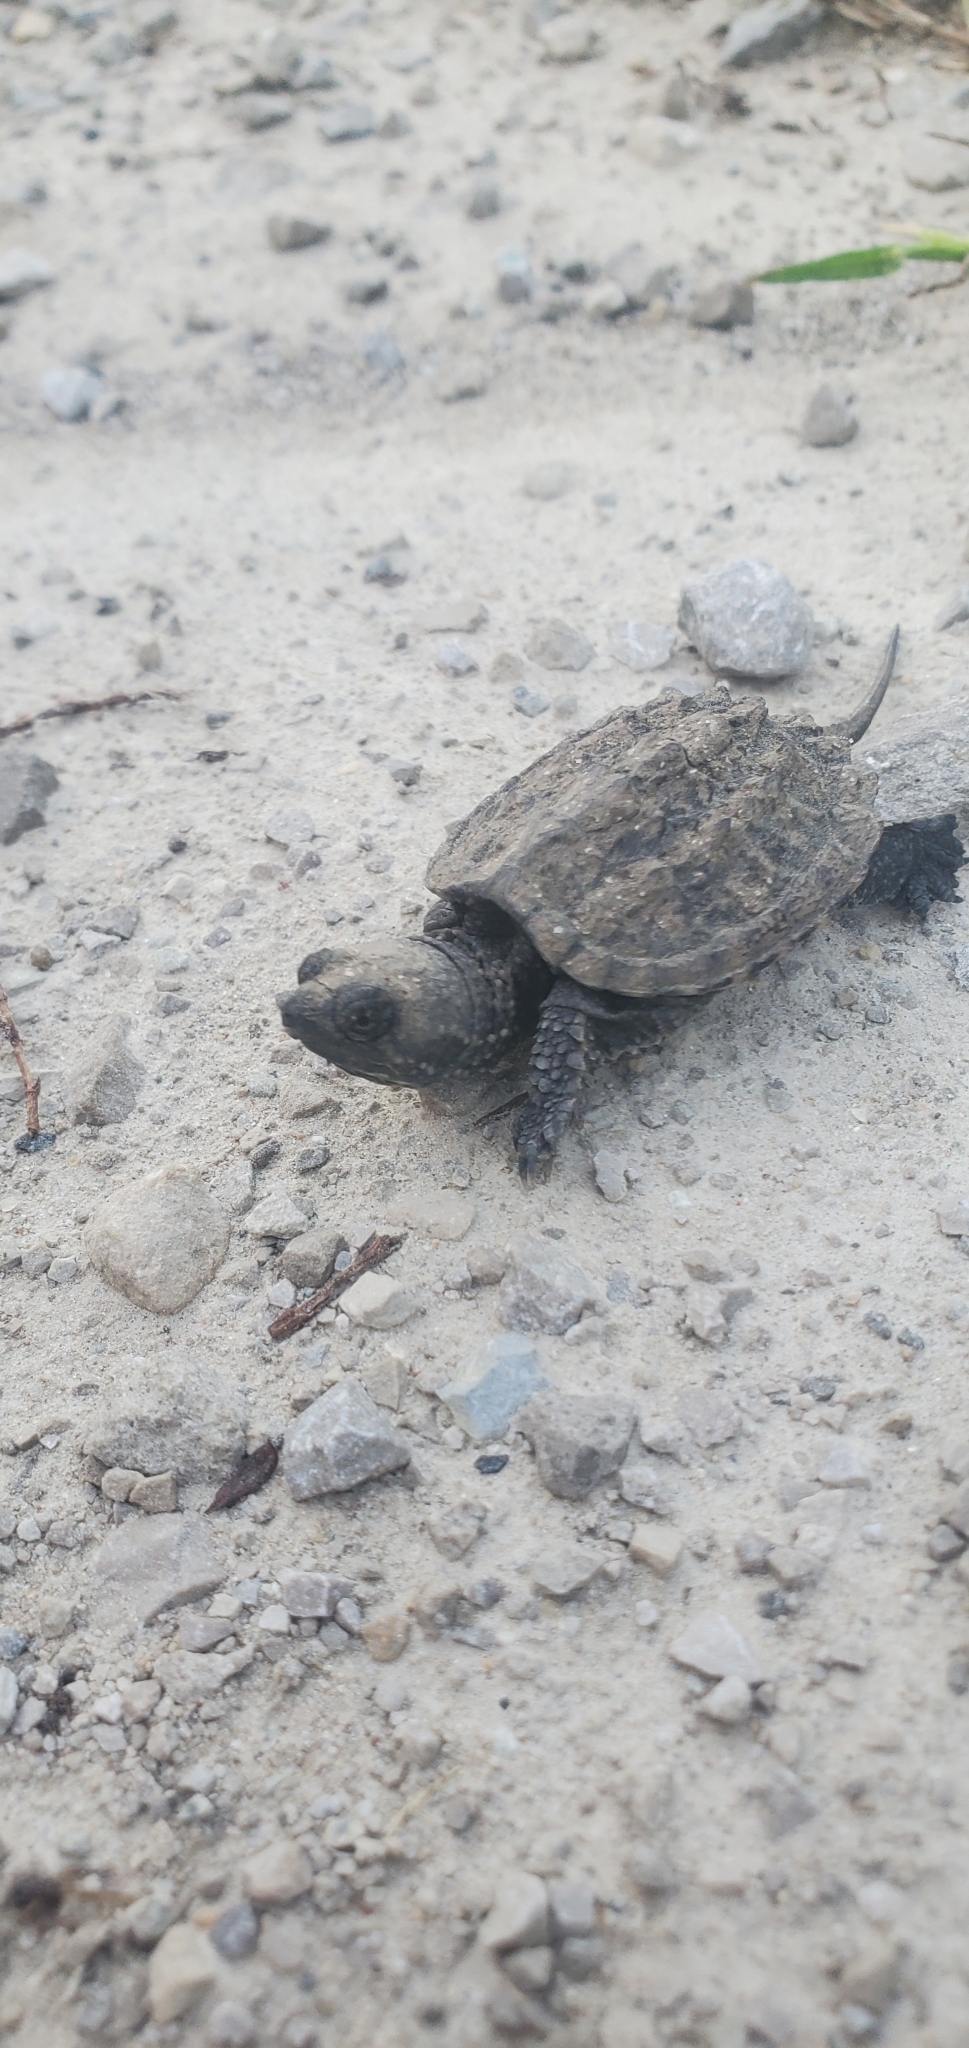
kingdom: Animalia
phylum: Chordata
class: Testudines
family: Chelydridae
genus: Chelydra
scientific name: Chelydra serpentina
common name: Common snapping turtle
